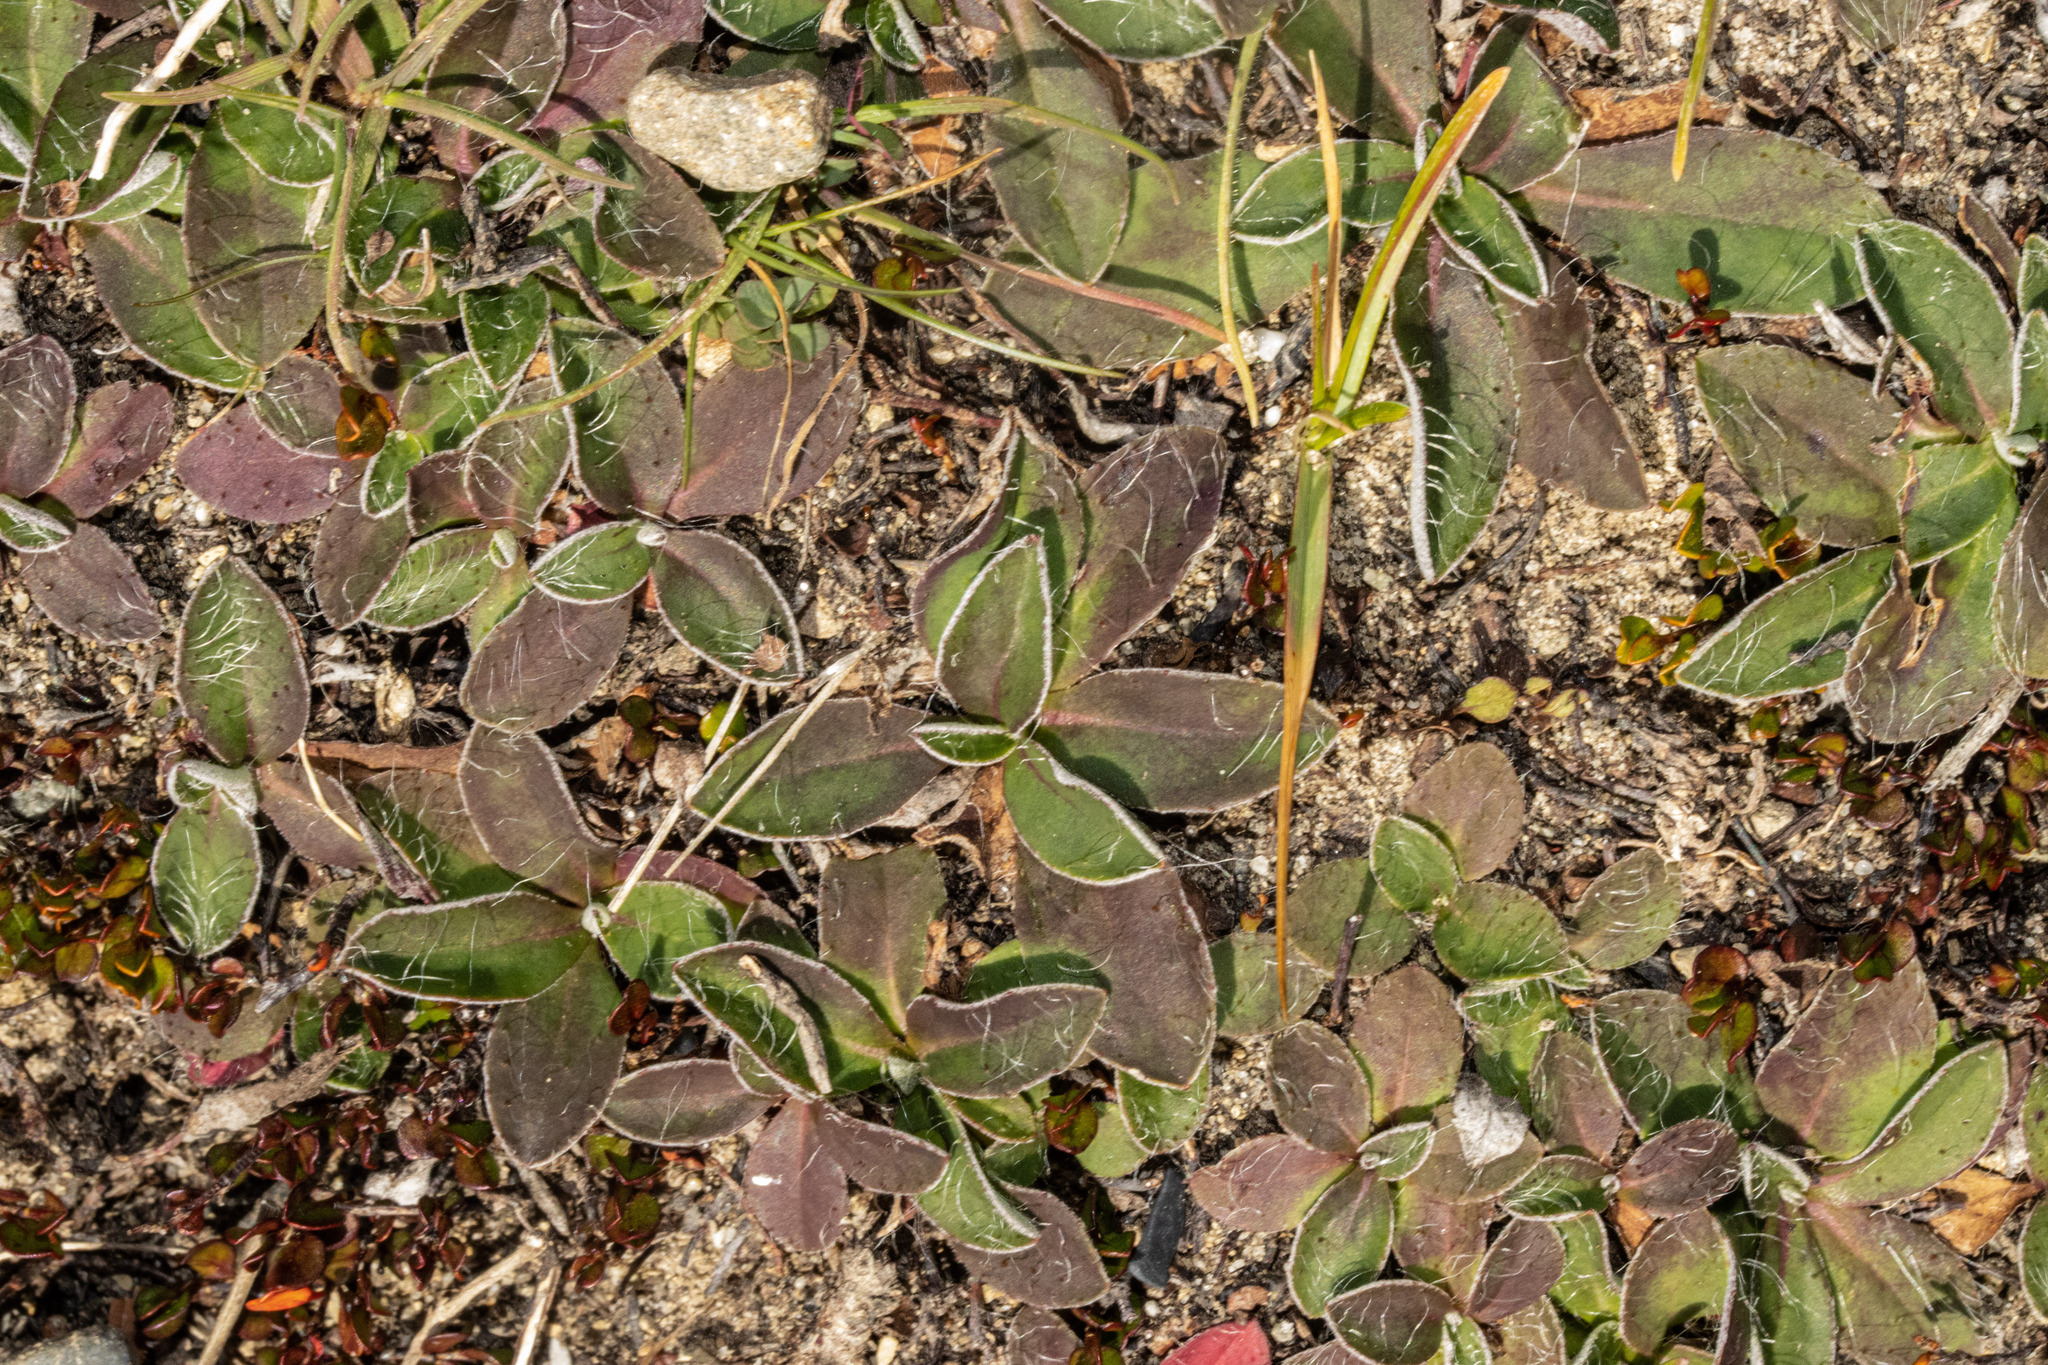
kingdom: Plantae
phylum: Tracheophyta
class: Magnoliopsida
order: Asterales
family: Asteraceae
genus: Pilosella
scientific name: Pilosella officinarum
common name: Mouse-ear hawkweed
